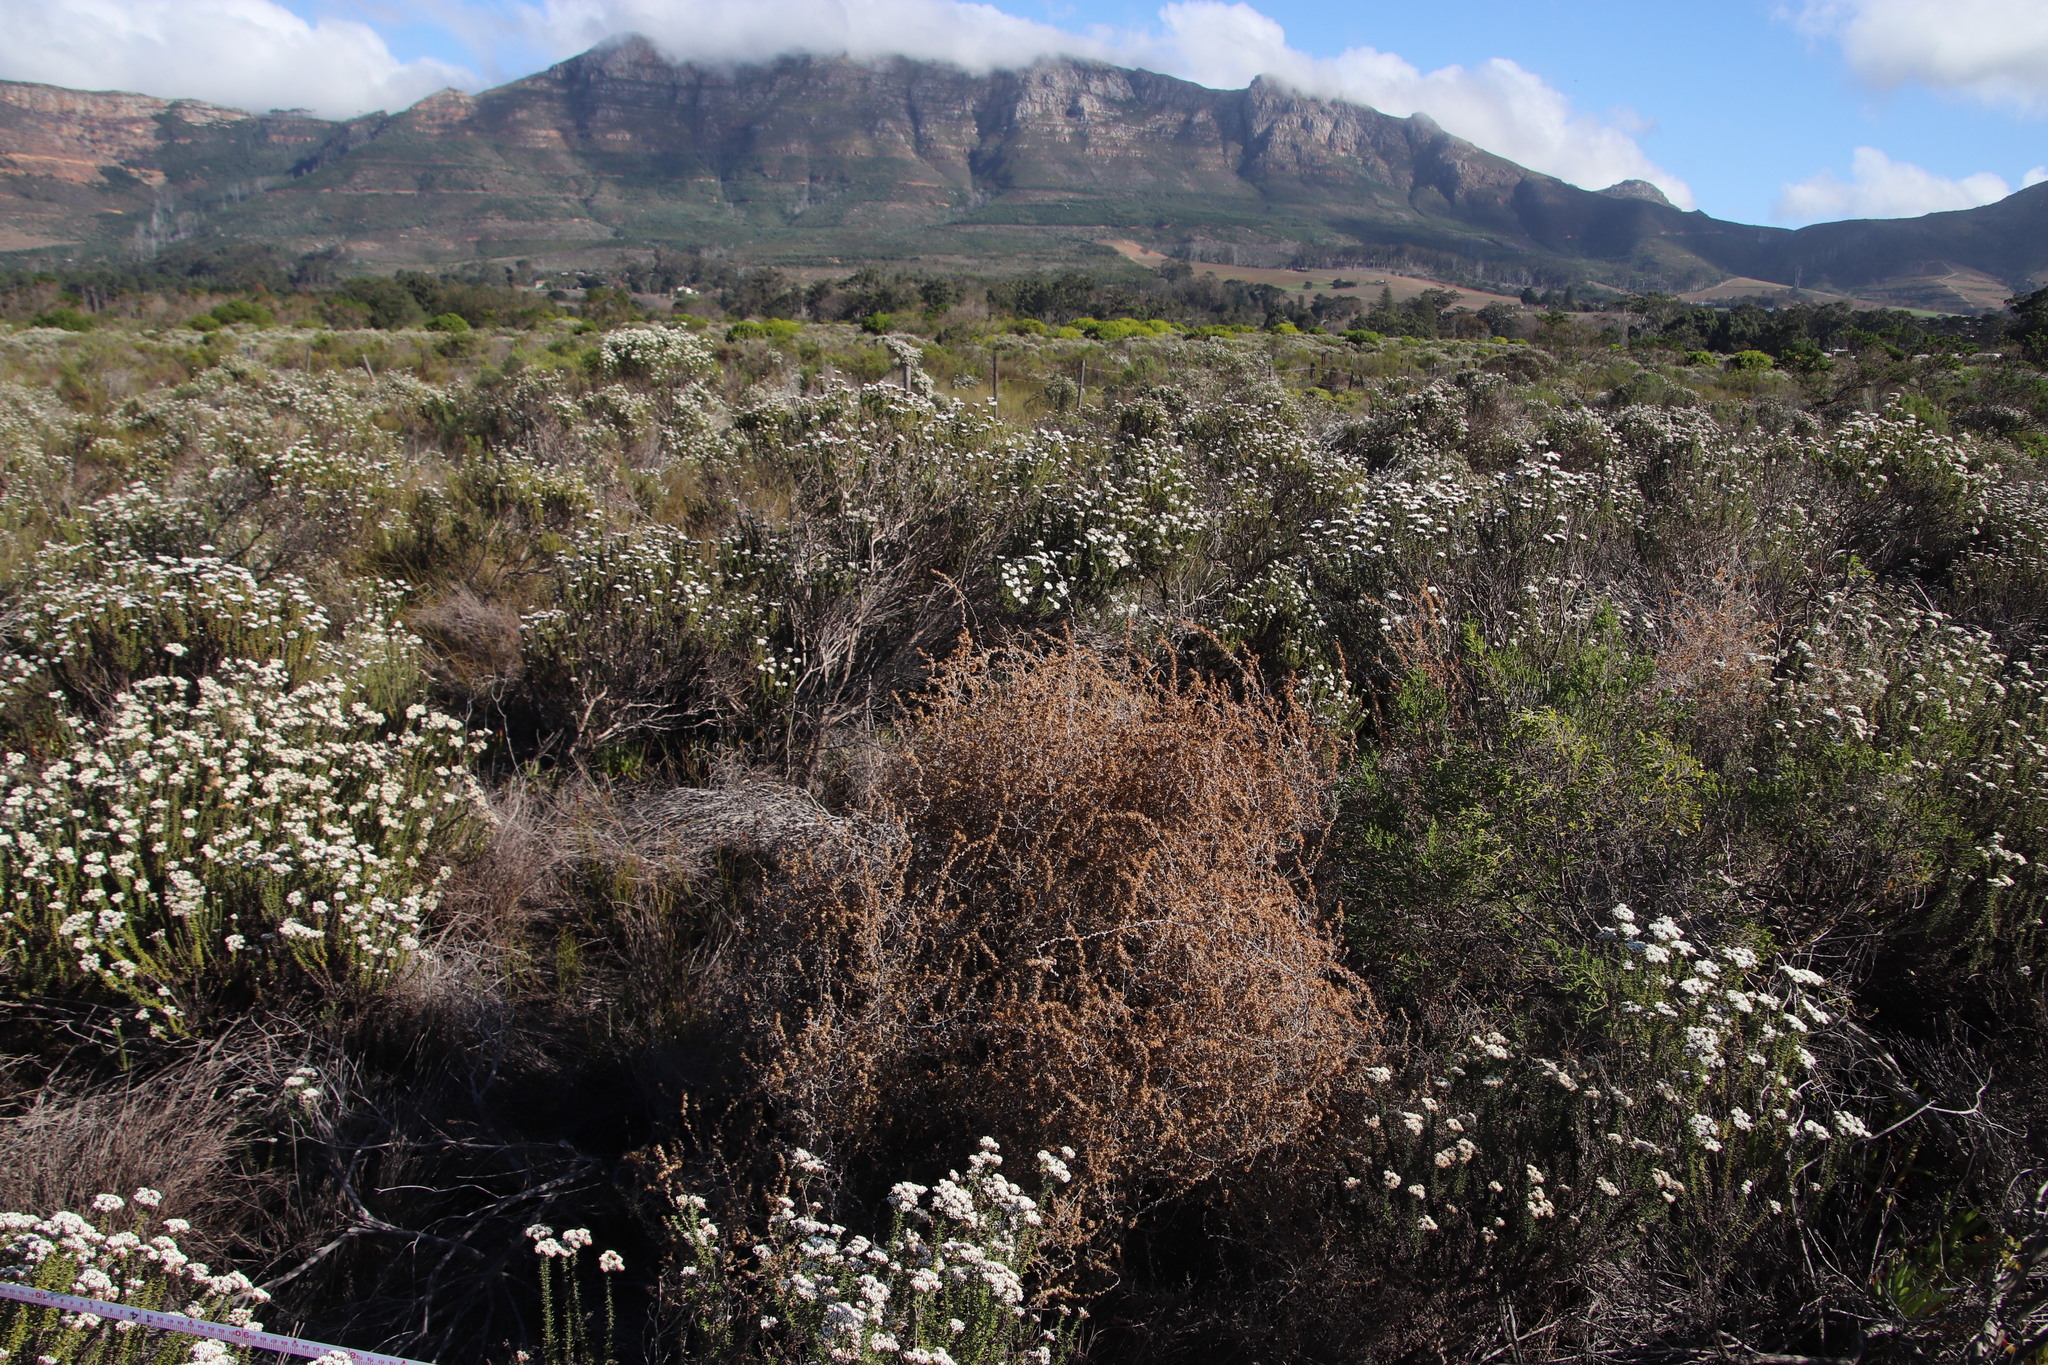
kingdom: Plantae
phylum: Tracheophyta
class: Magnoliopsida
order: Asterales
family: Asteraceae
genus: Seriphium
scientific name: Seriphium plumosum
